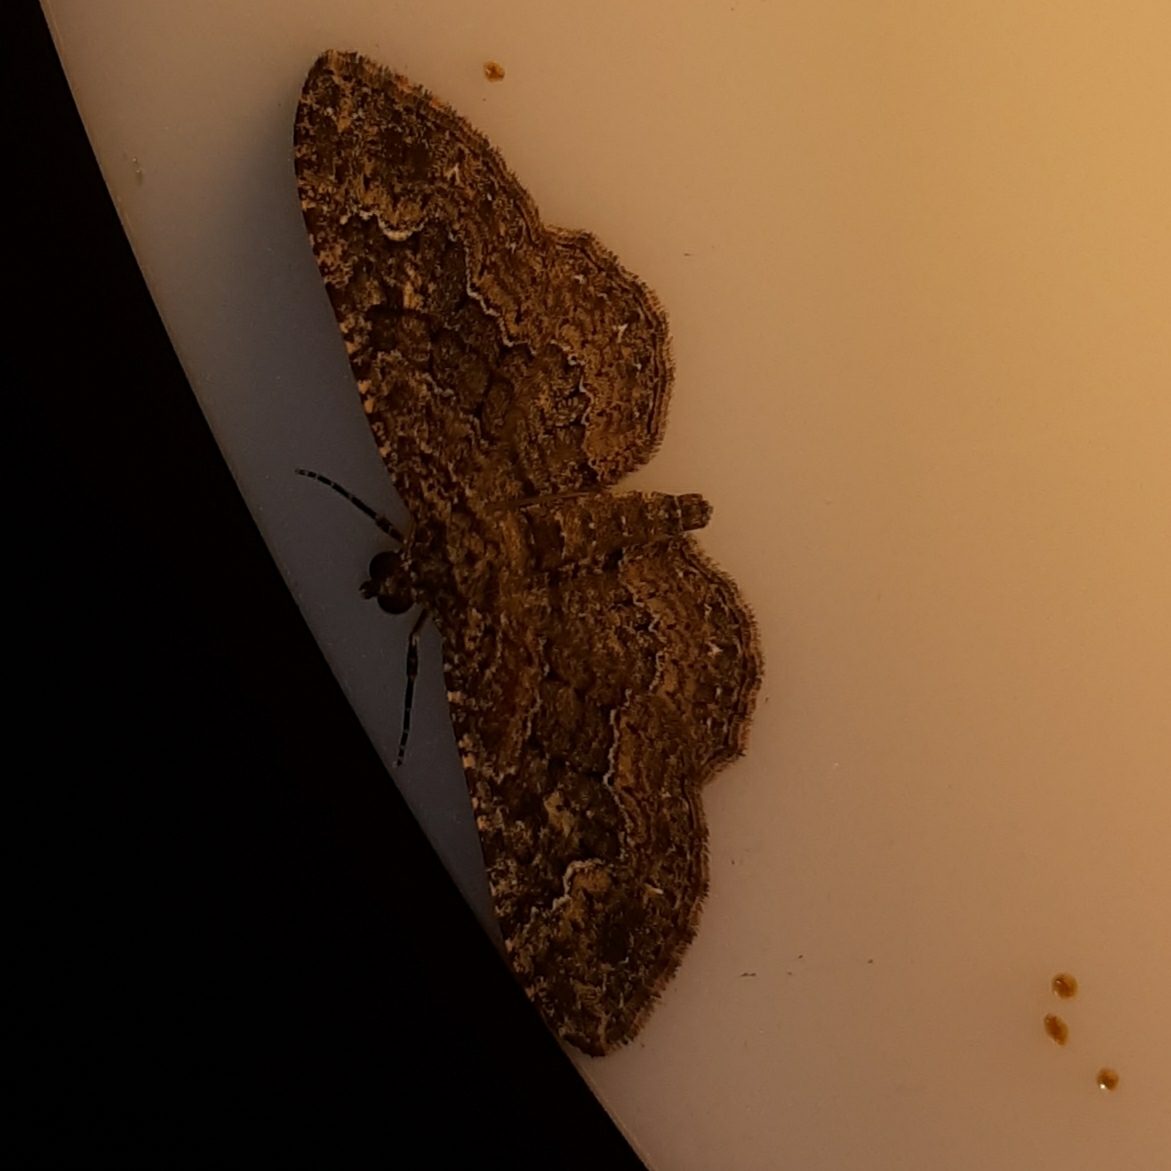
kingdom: Animalia
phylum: Arthropoda
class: Insecta
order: Lepidoptera
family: Geometridae
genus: Disclisioprocta
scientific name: Disclisioprocta stellata
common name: Somber carpet
